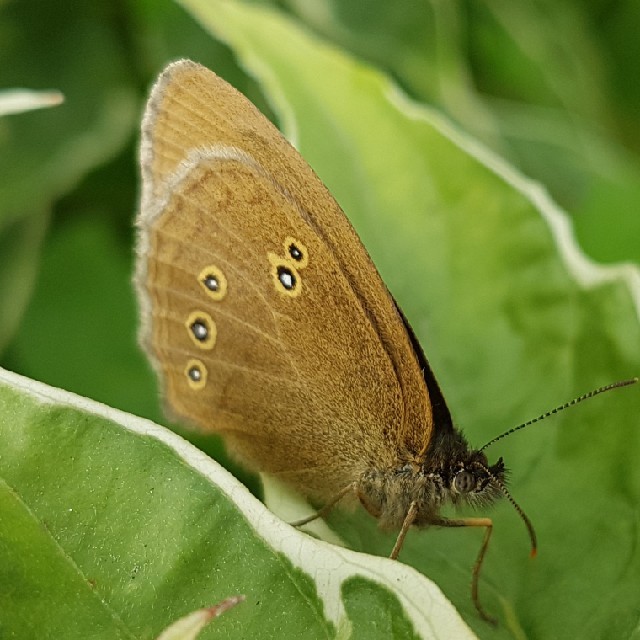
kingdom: Animalia
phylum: Arthropoda
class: Insecta
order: Lepidoptera
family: Nymphalidae
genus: Aphantopus
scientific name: Aphantopus hyperantus
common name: Ringlet
